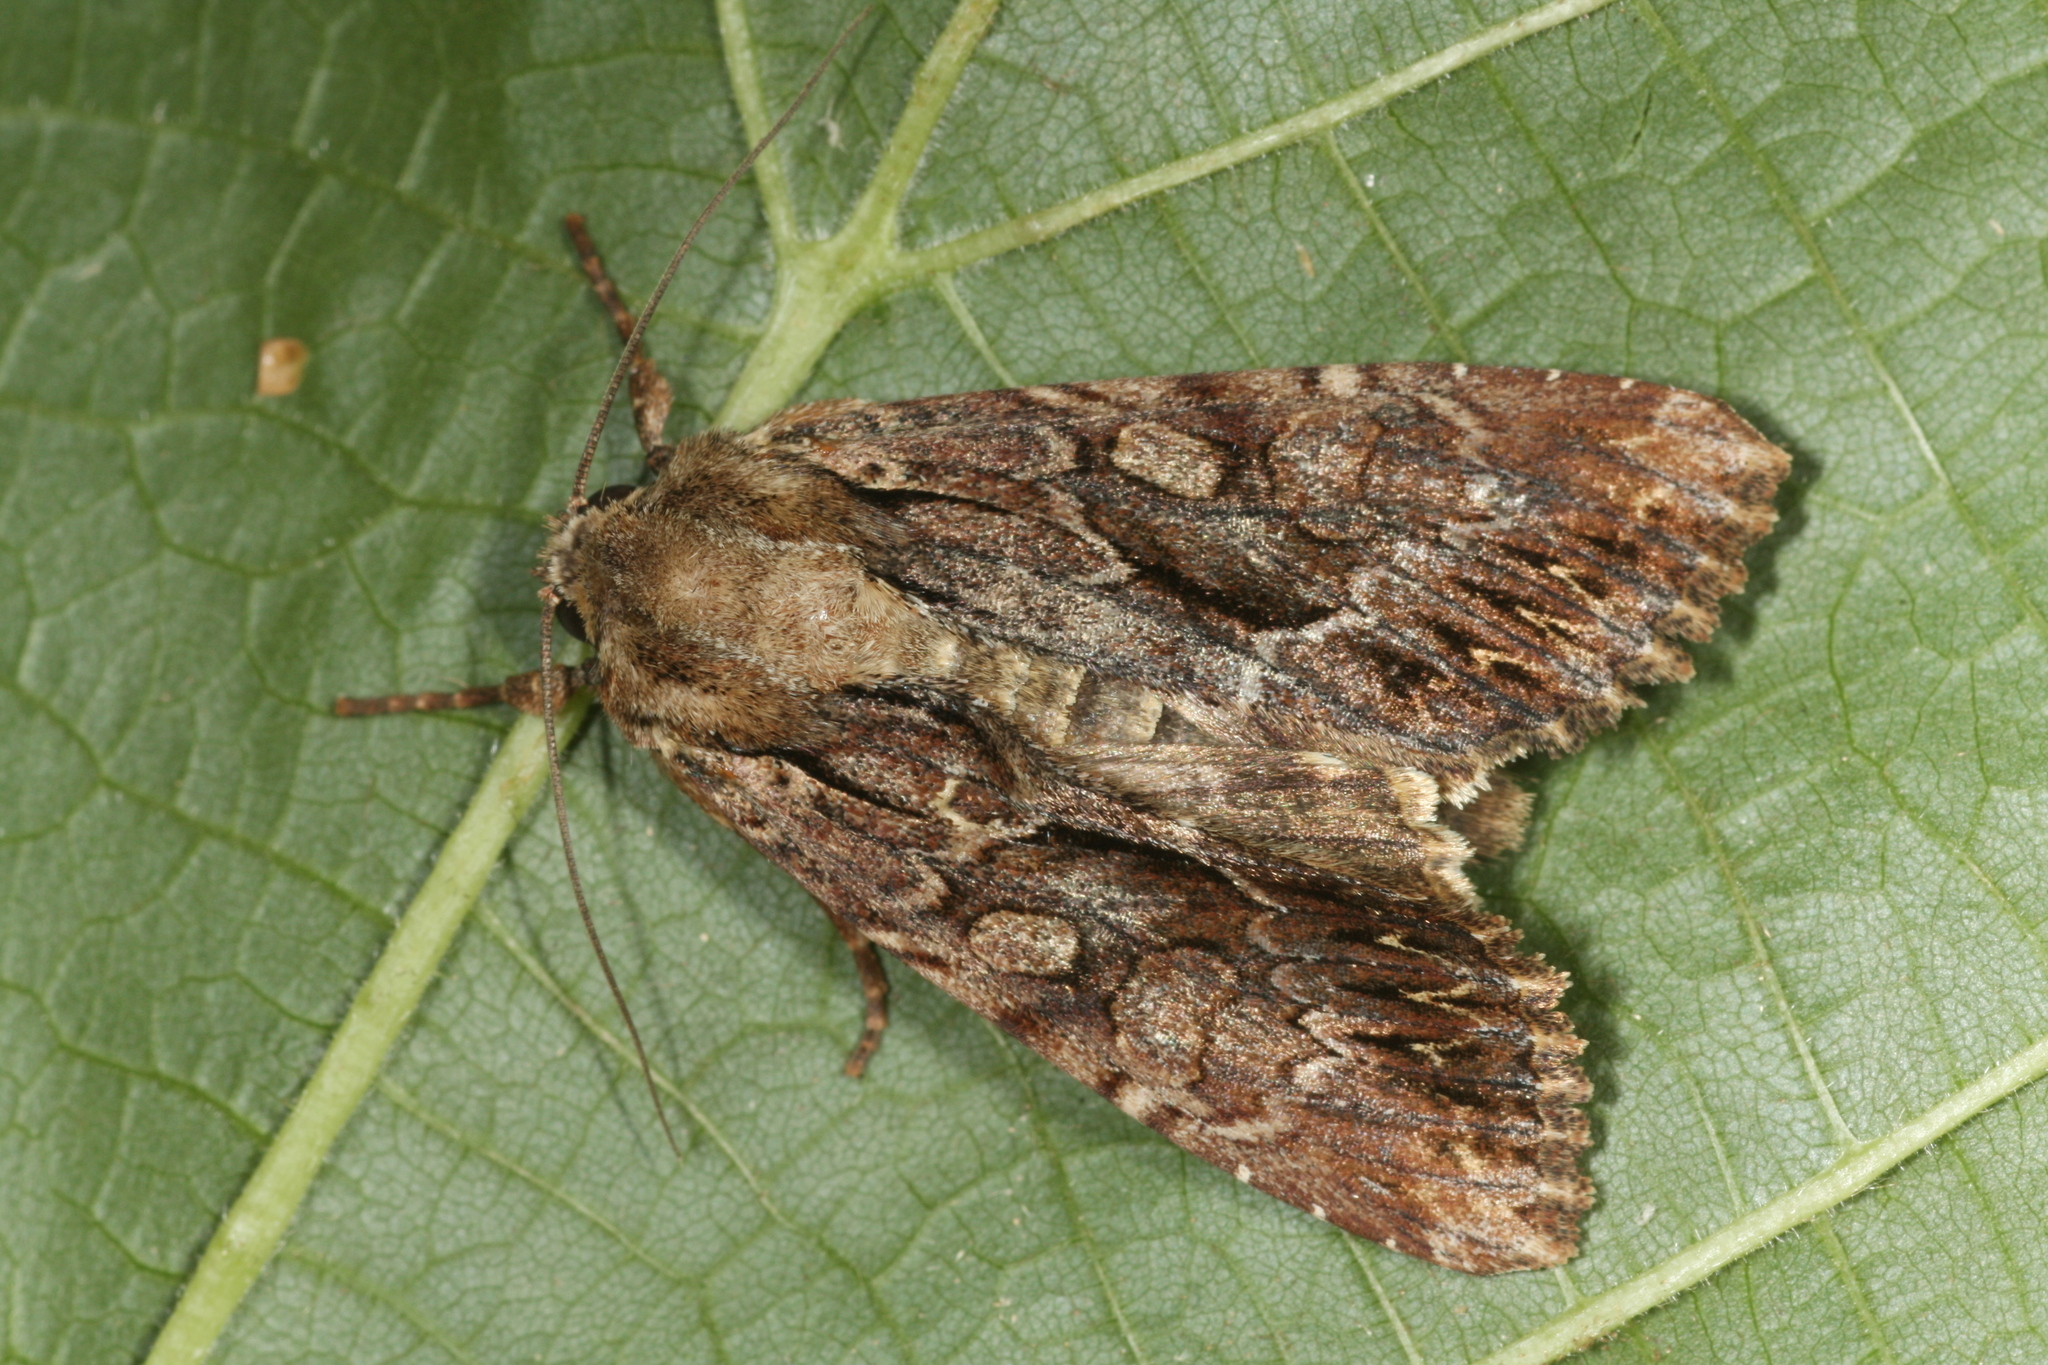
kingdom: Animalia
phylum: Arthropoda
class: Insecta
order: Lepidoptera
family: Noctuidae
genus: Apamea
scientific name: Apamea monoglypha
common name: Dark arches
